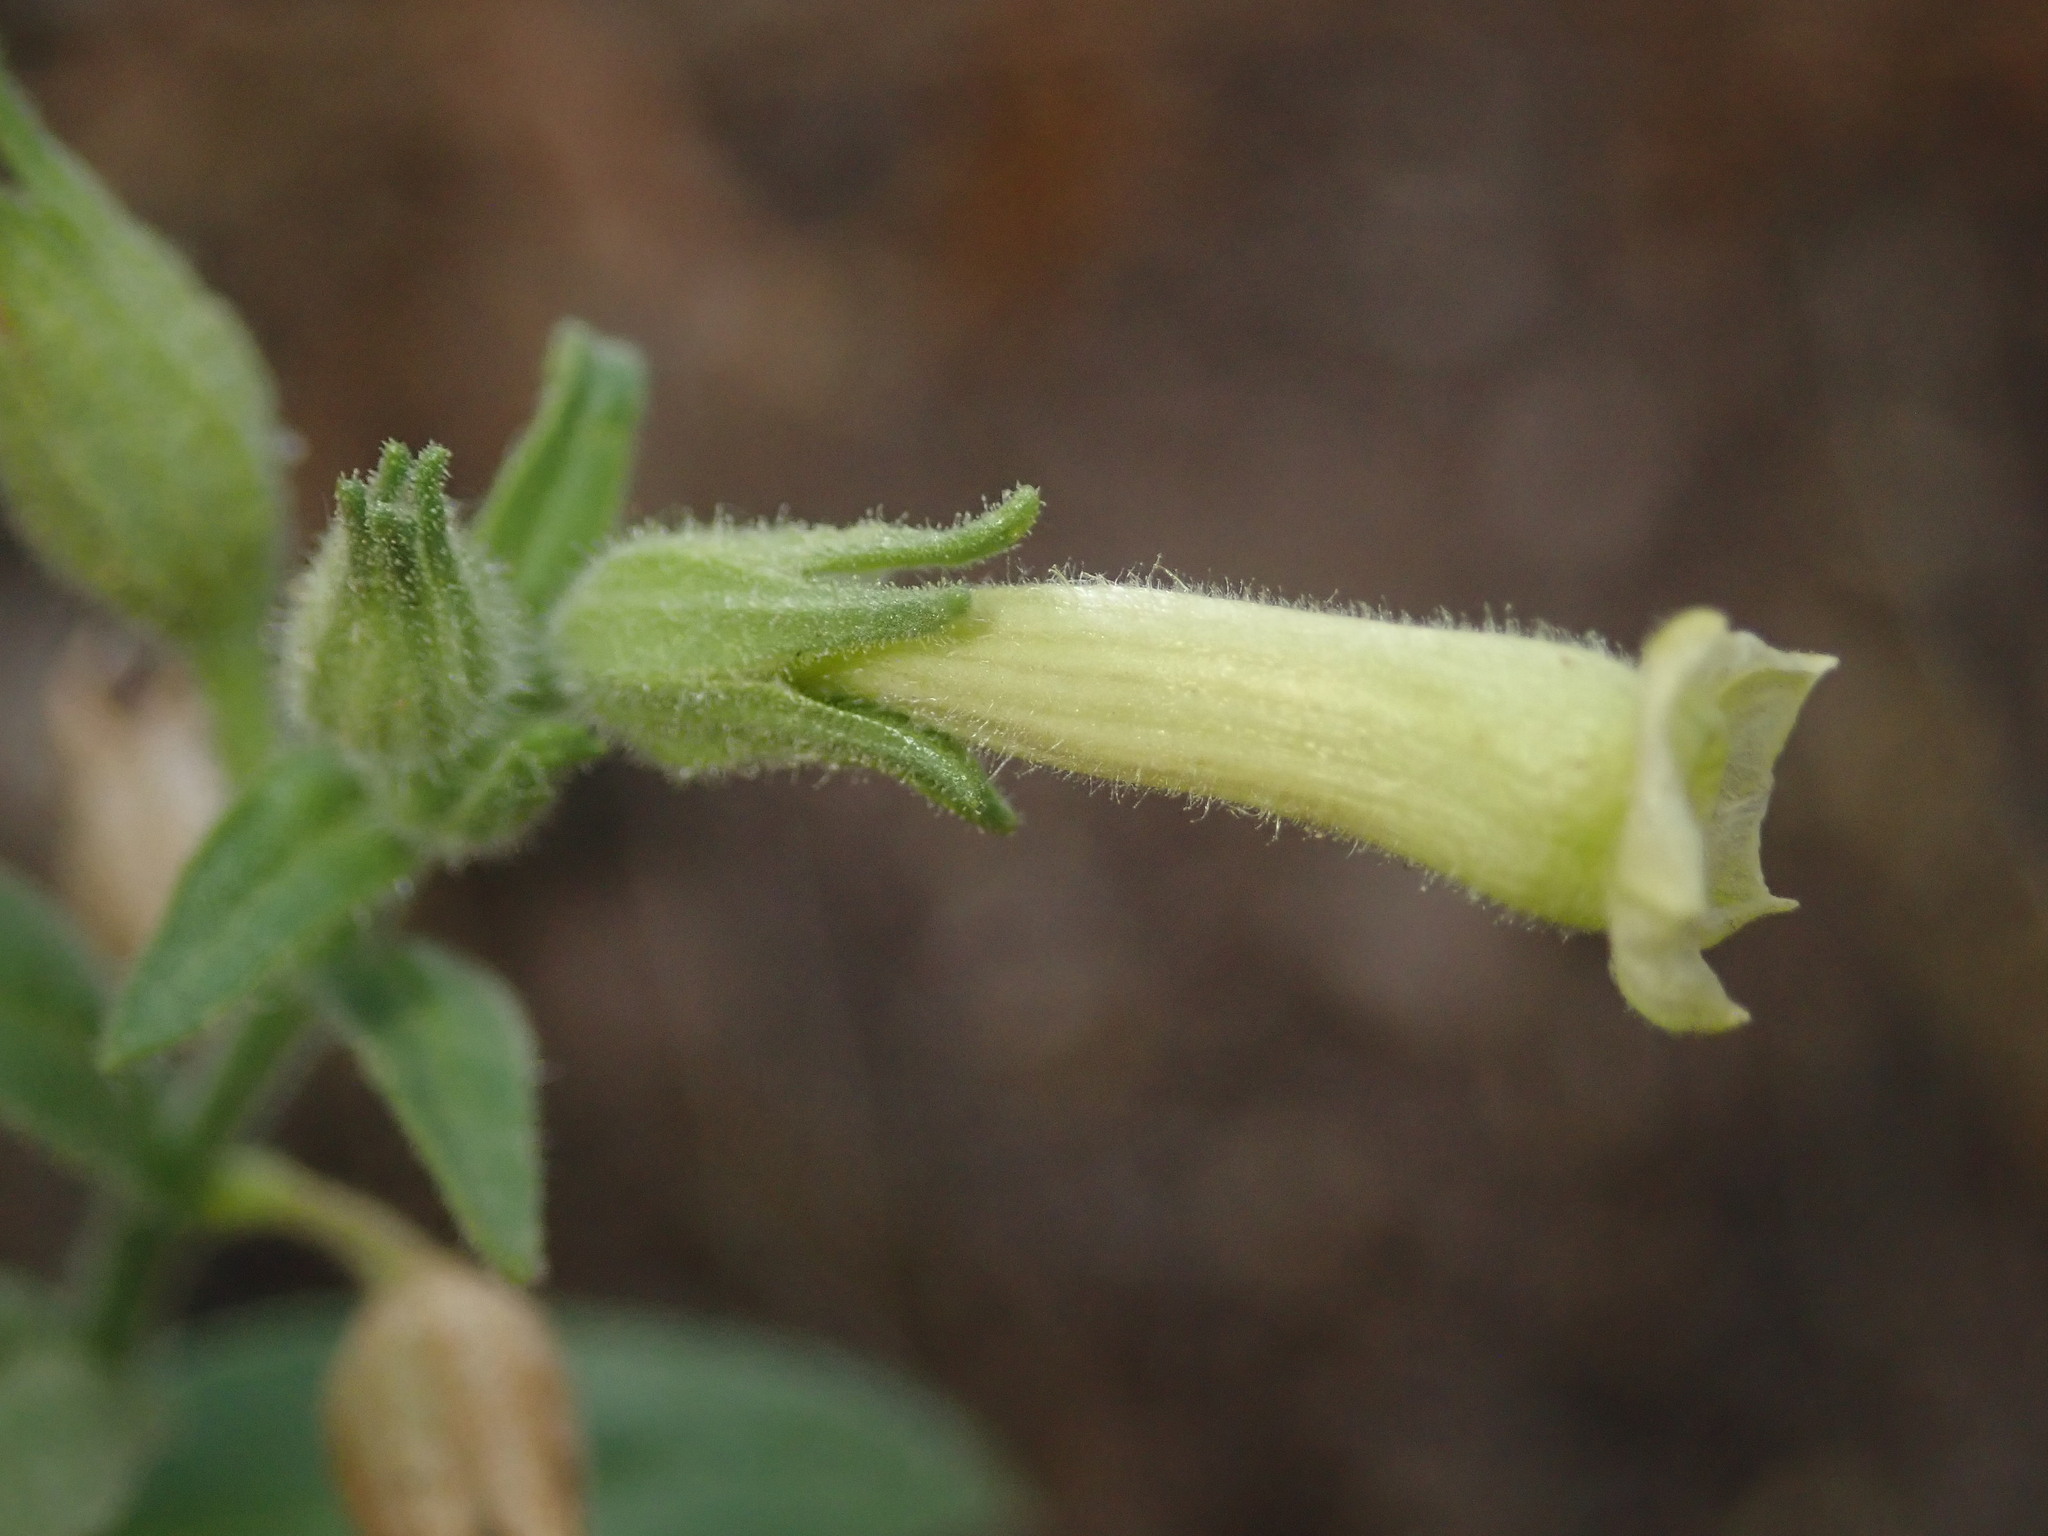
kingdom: Plantae
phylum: Tracheophyta
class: Magnoliopsida
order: Solanales
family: Solanaceae
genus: Nicotiana
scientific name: Nicotiana obtusifolia
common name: Desert tobacco
